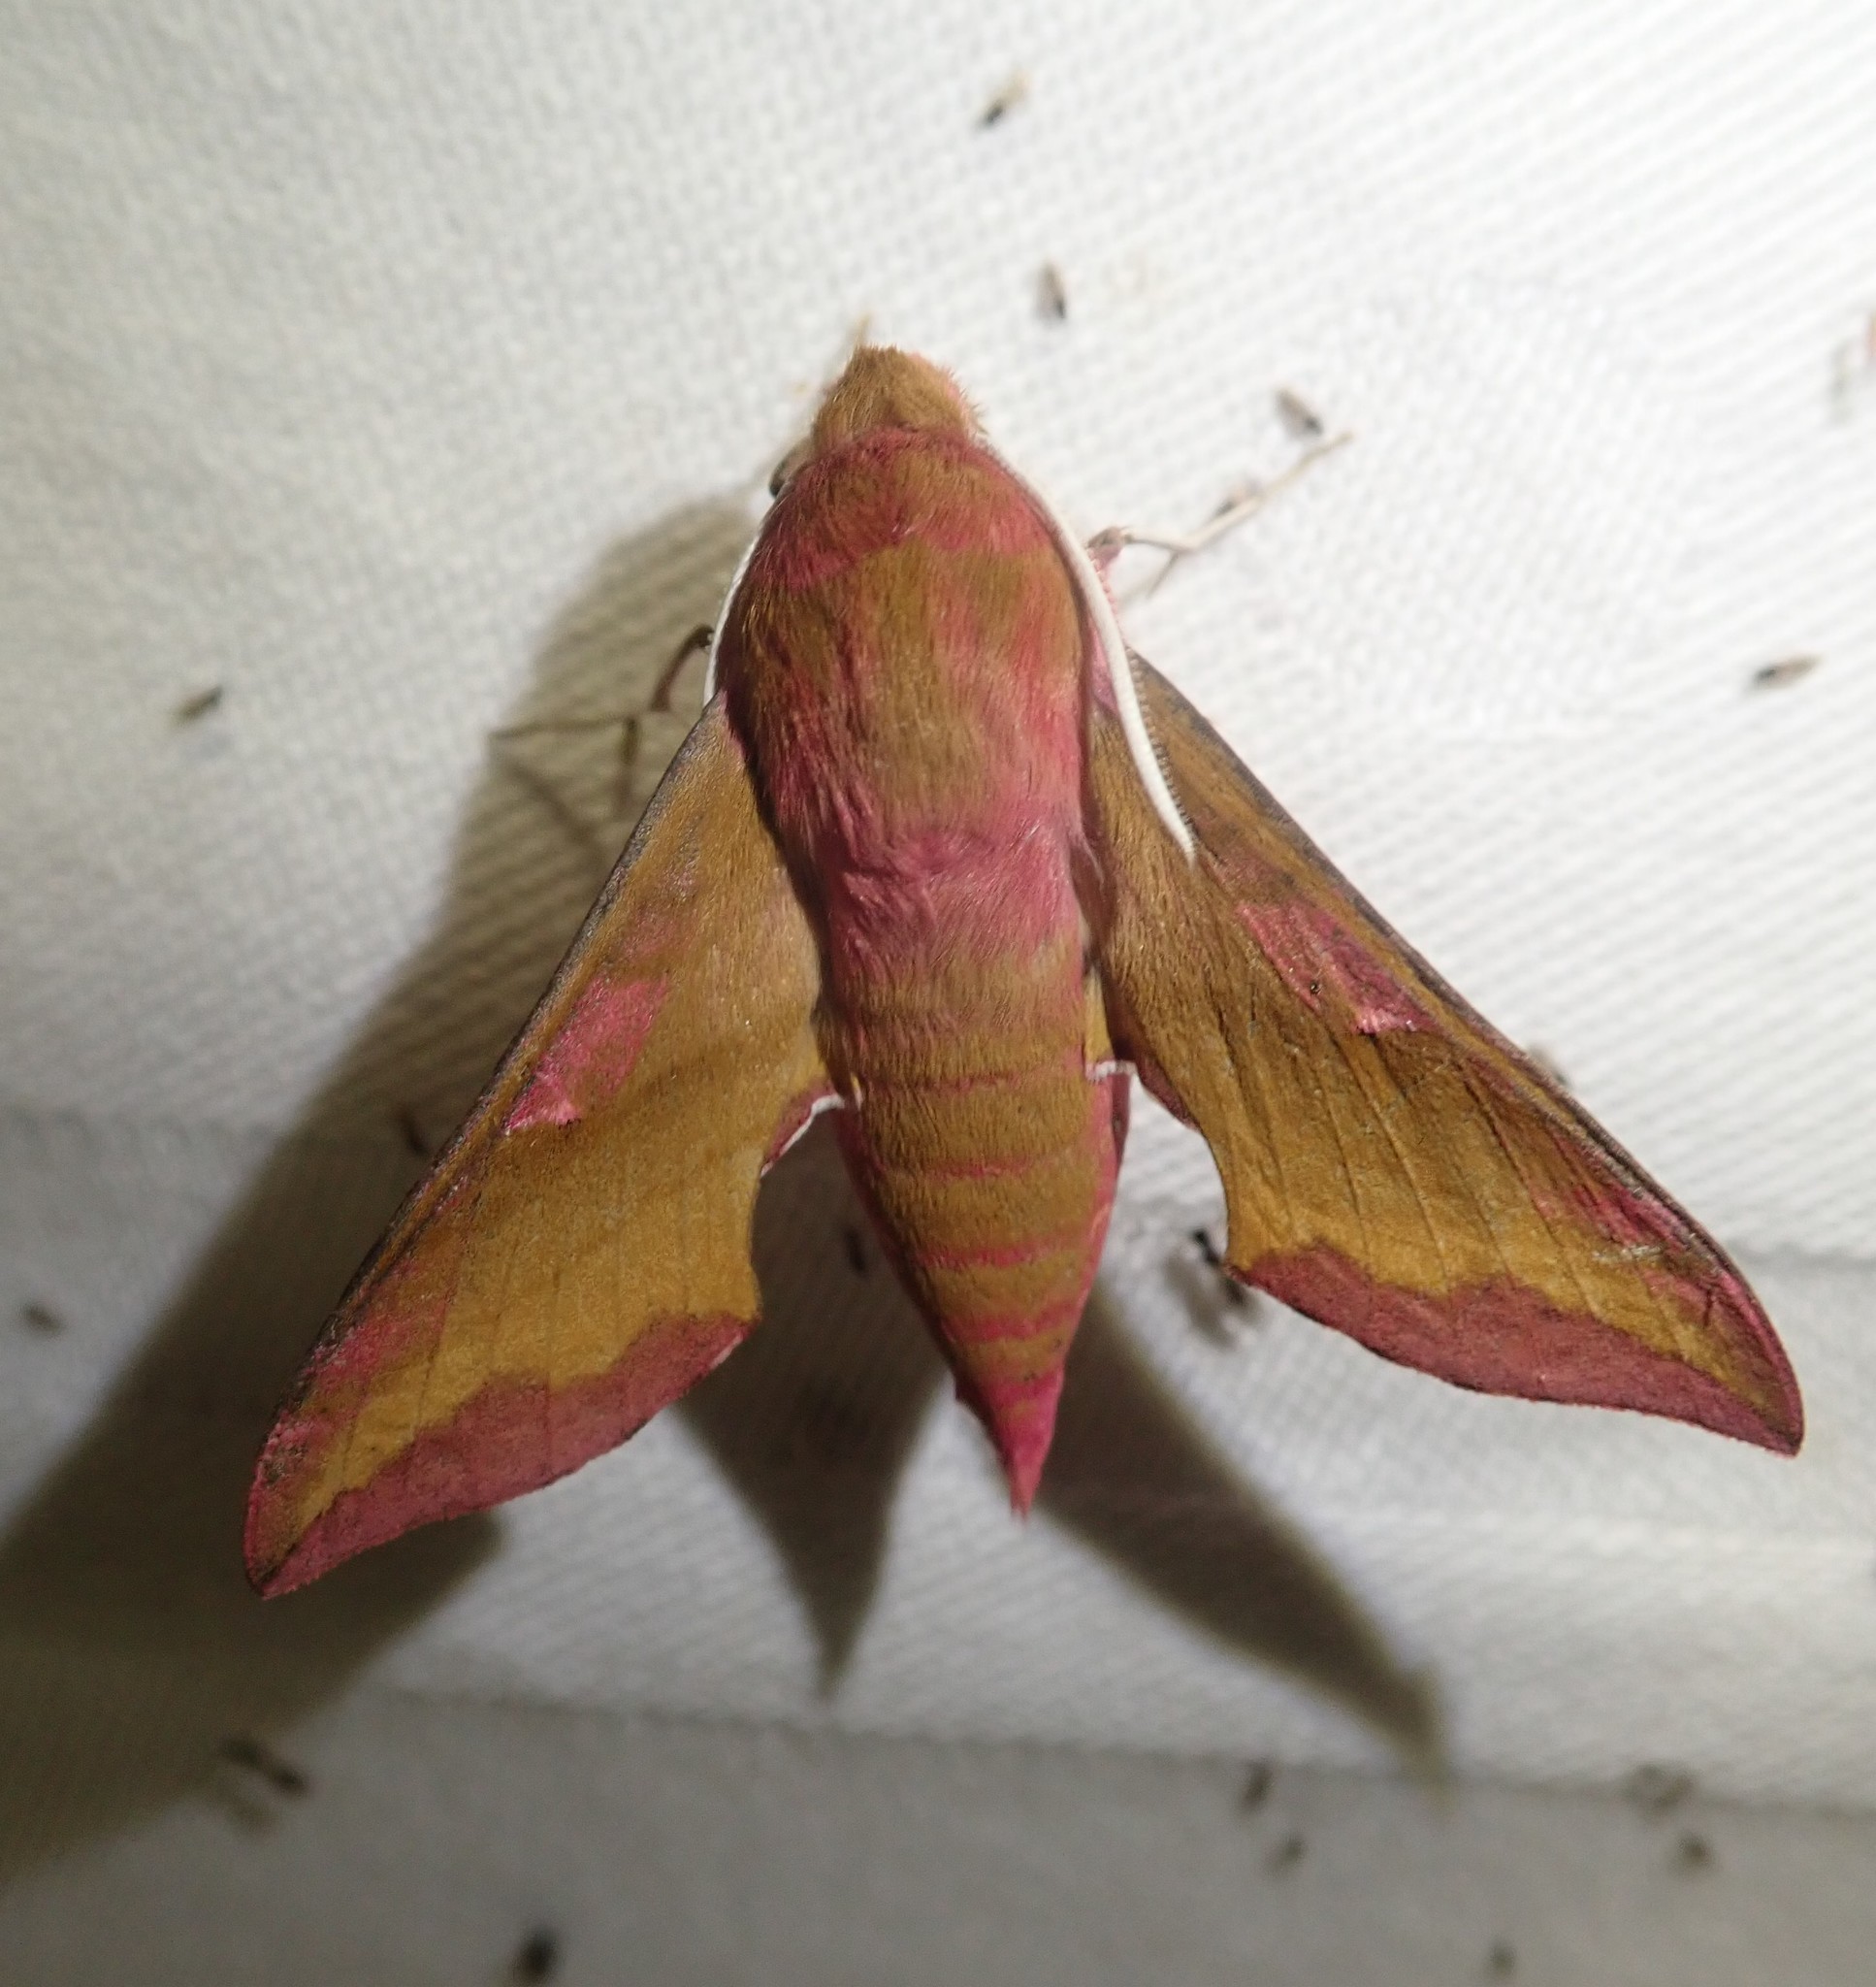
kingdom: Animalia
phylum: Arthropoda
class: Insecta
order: Lepidoptera
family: Sphingidae
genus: Deilephila
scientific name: Deilephila porcellus
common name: Small elephant hawk-moth
